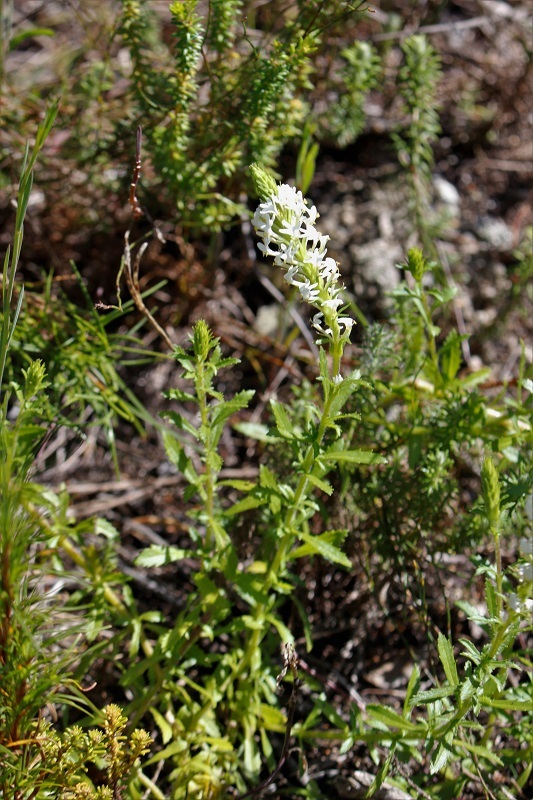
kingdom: Plantae
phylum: Tracheophyta
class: Magnoliopsida
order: Lamiales
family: Scrophulariaceae
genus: Dischisma
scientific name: Dischisma ciliatum
